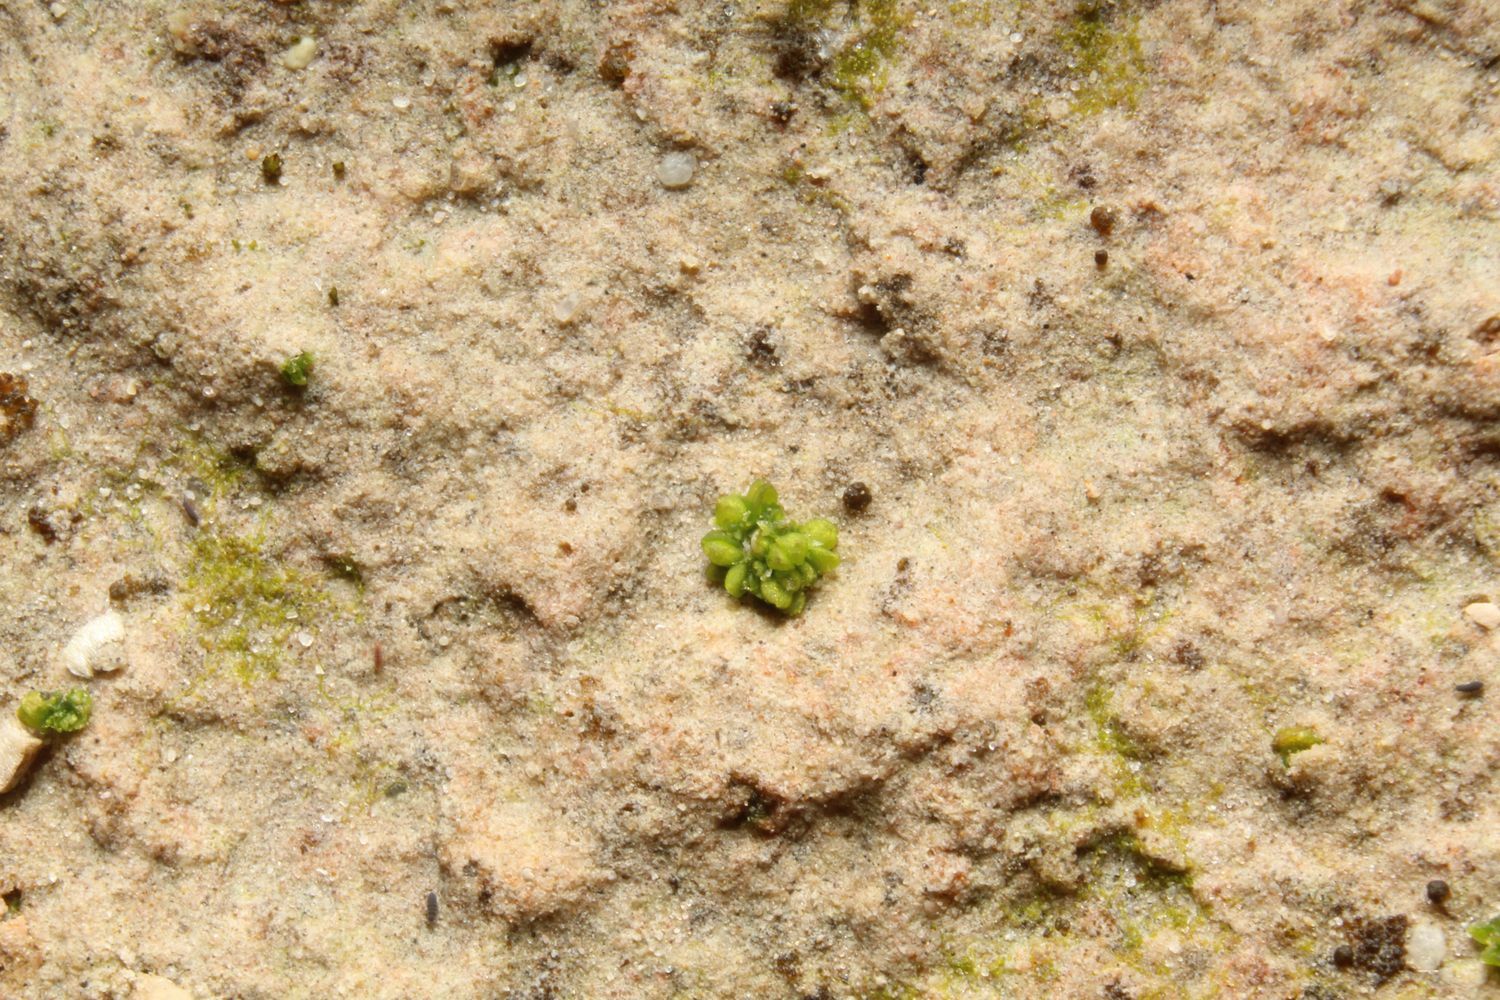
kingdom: Plantae
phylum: Marchantiophyta
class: Marchantiopsida
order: Sphaerocarpales
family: Riellaceae
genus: Austroriella
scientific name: Austroriella salta
